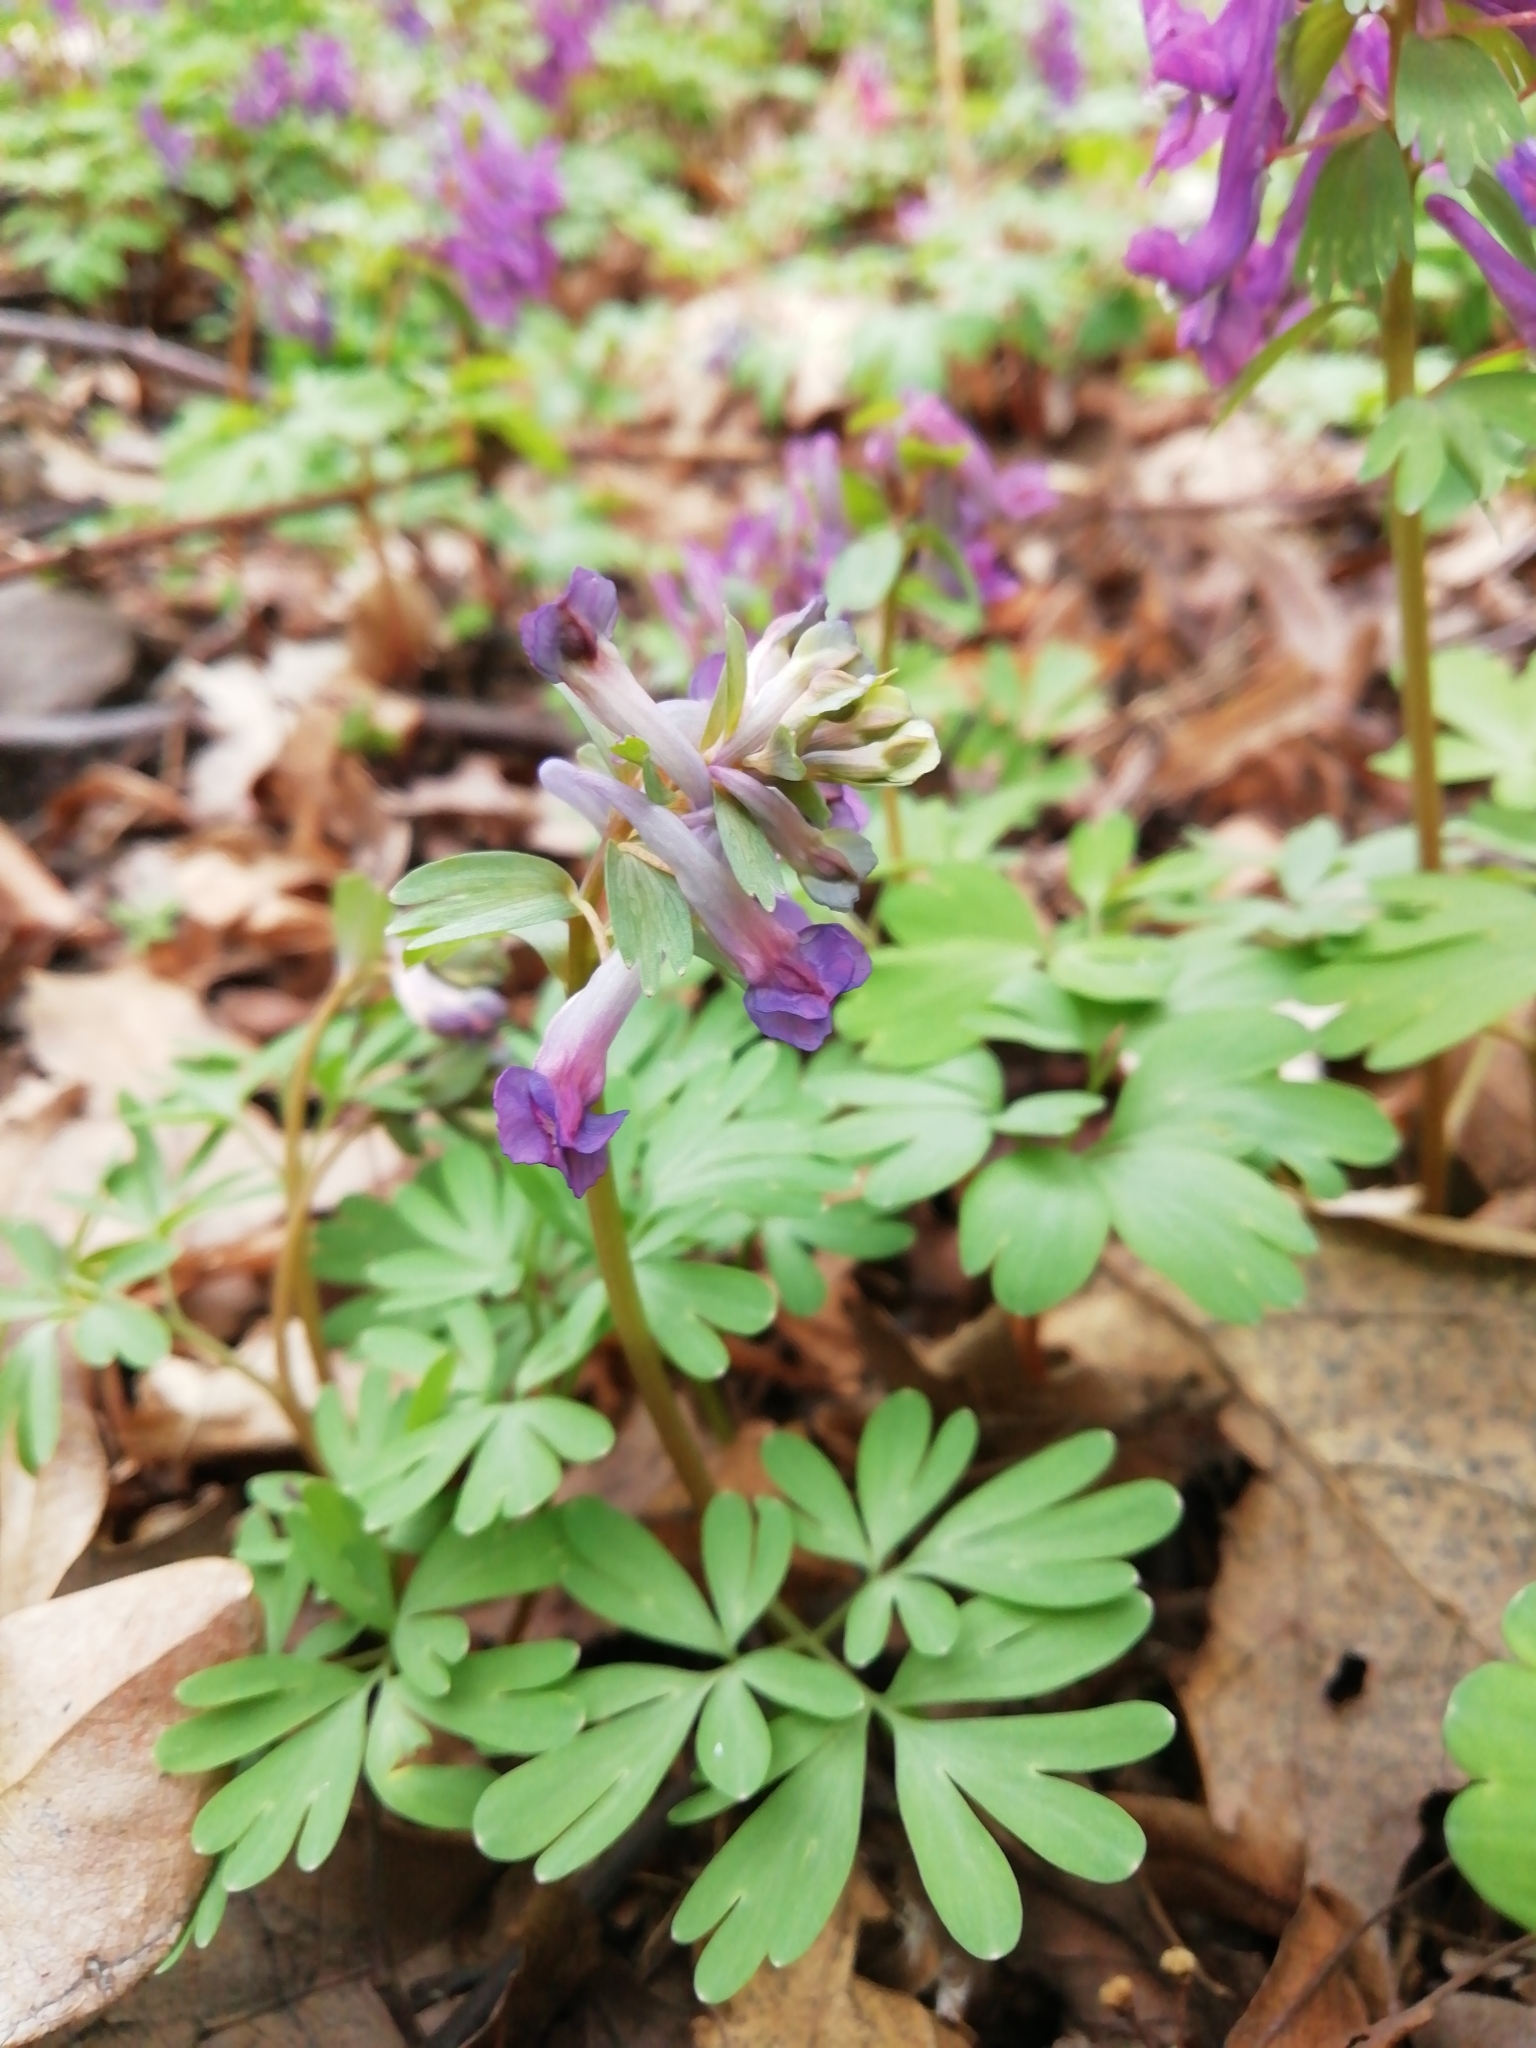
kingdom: Plantae
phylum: Tracheophyta
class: Magnoliopsida
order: Ranunculales
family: Papaveraceae
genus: Corydalis
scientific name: Corydalis solida
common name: Bird-in-a-bush
